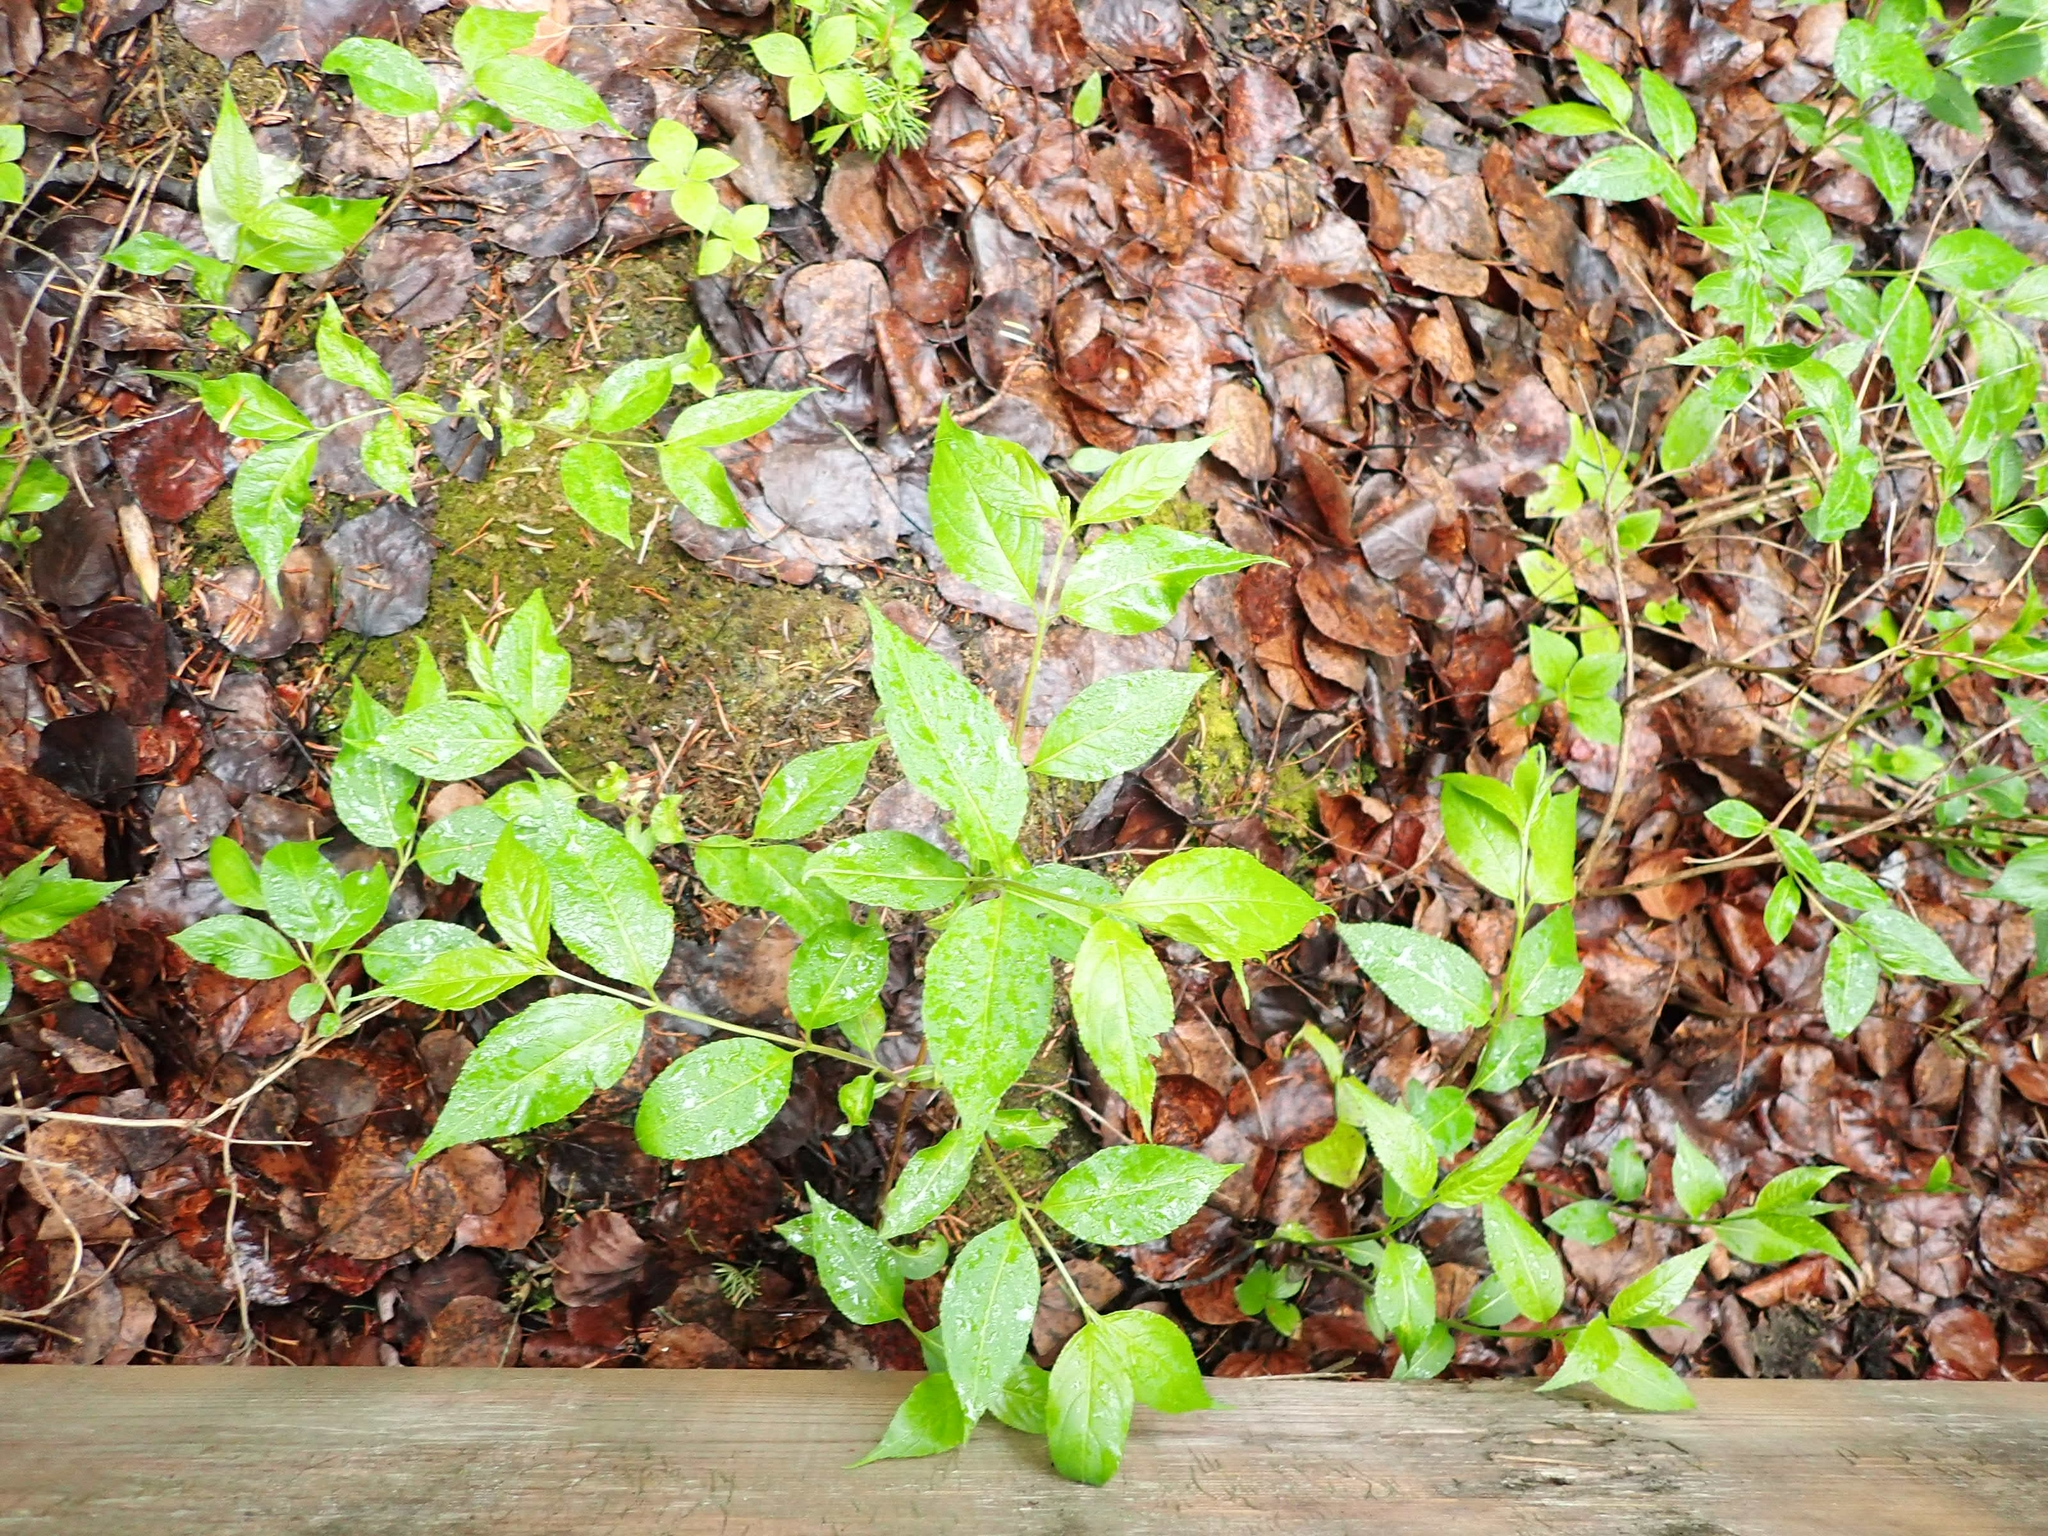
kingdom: Plantae
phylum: Tracheophyta
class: Magnoliopsida
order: Dipsacales
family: Caprifoliaceae
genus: Diervilla
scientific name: Diervilla lonicera
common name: Bush-honeysuckle
